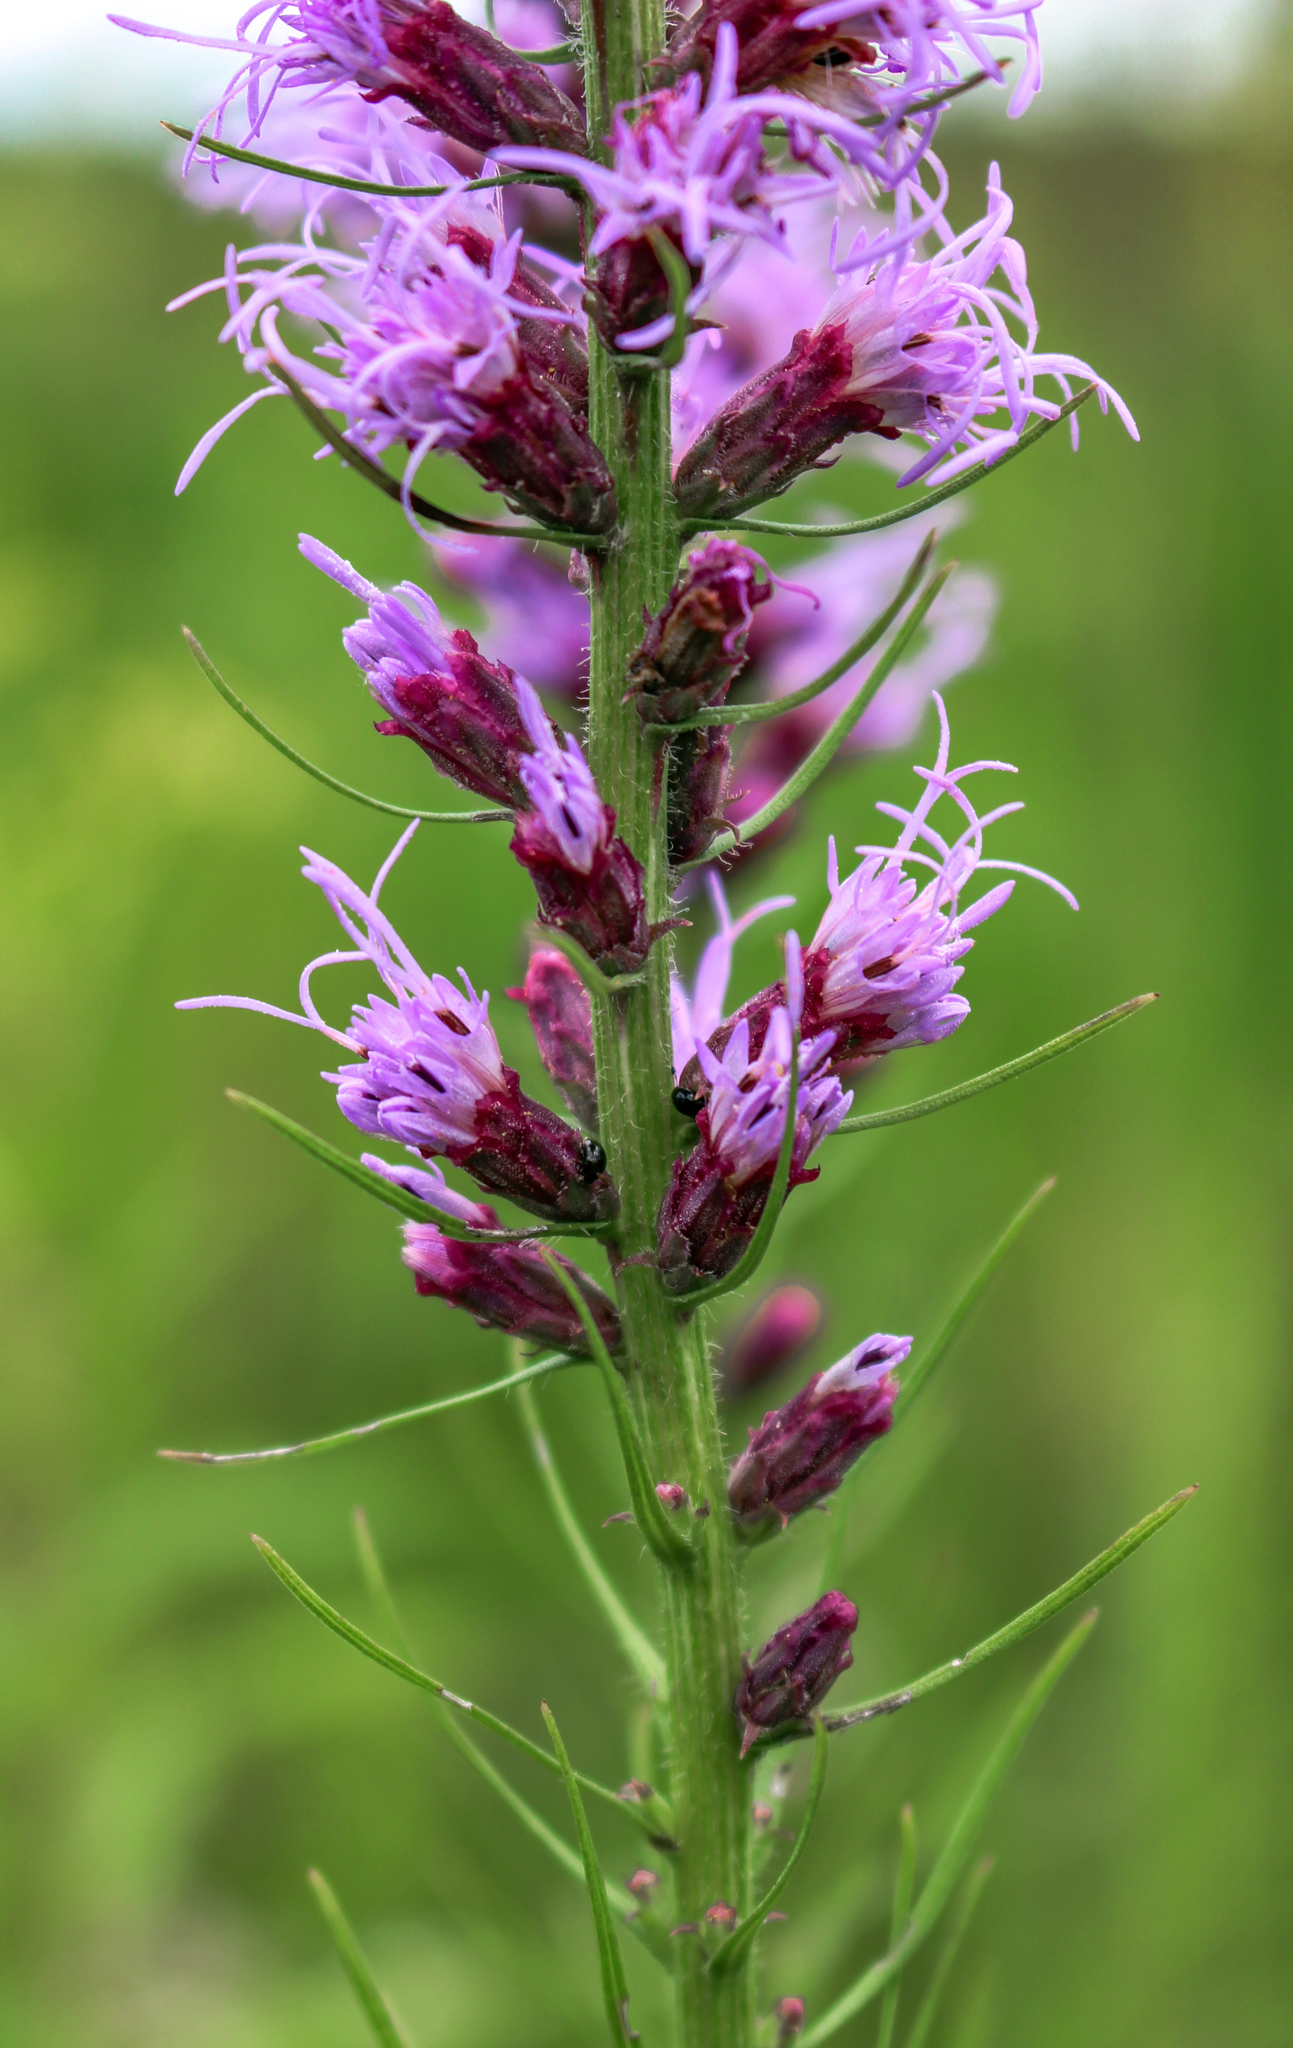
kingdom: Plantae
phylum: Tracheophyta
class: Magnoliopsida
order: Asterales
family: Asteraceae
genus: Liatris
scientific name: Liatris pycnostachya
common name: Cattail gayfeather
